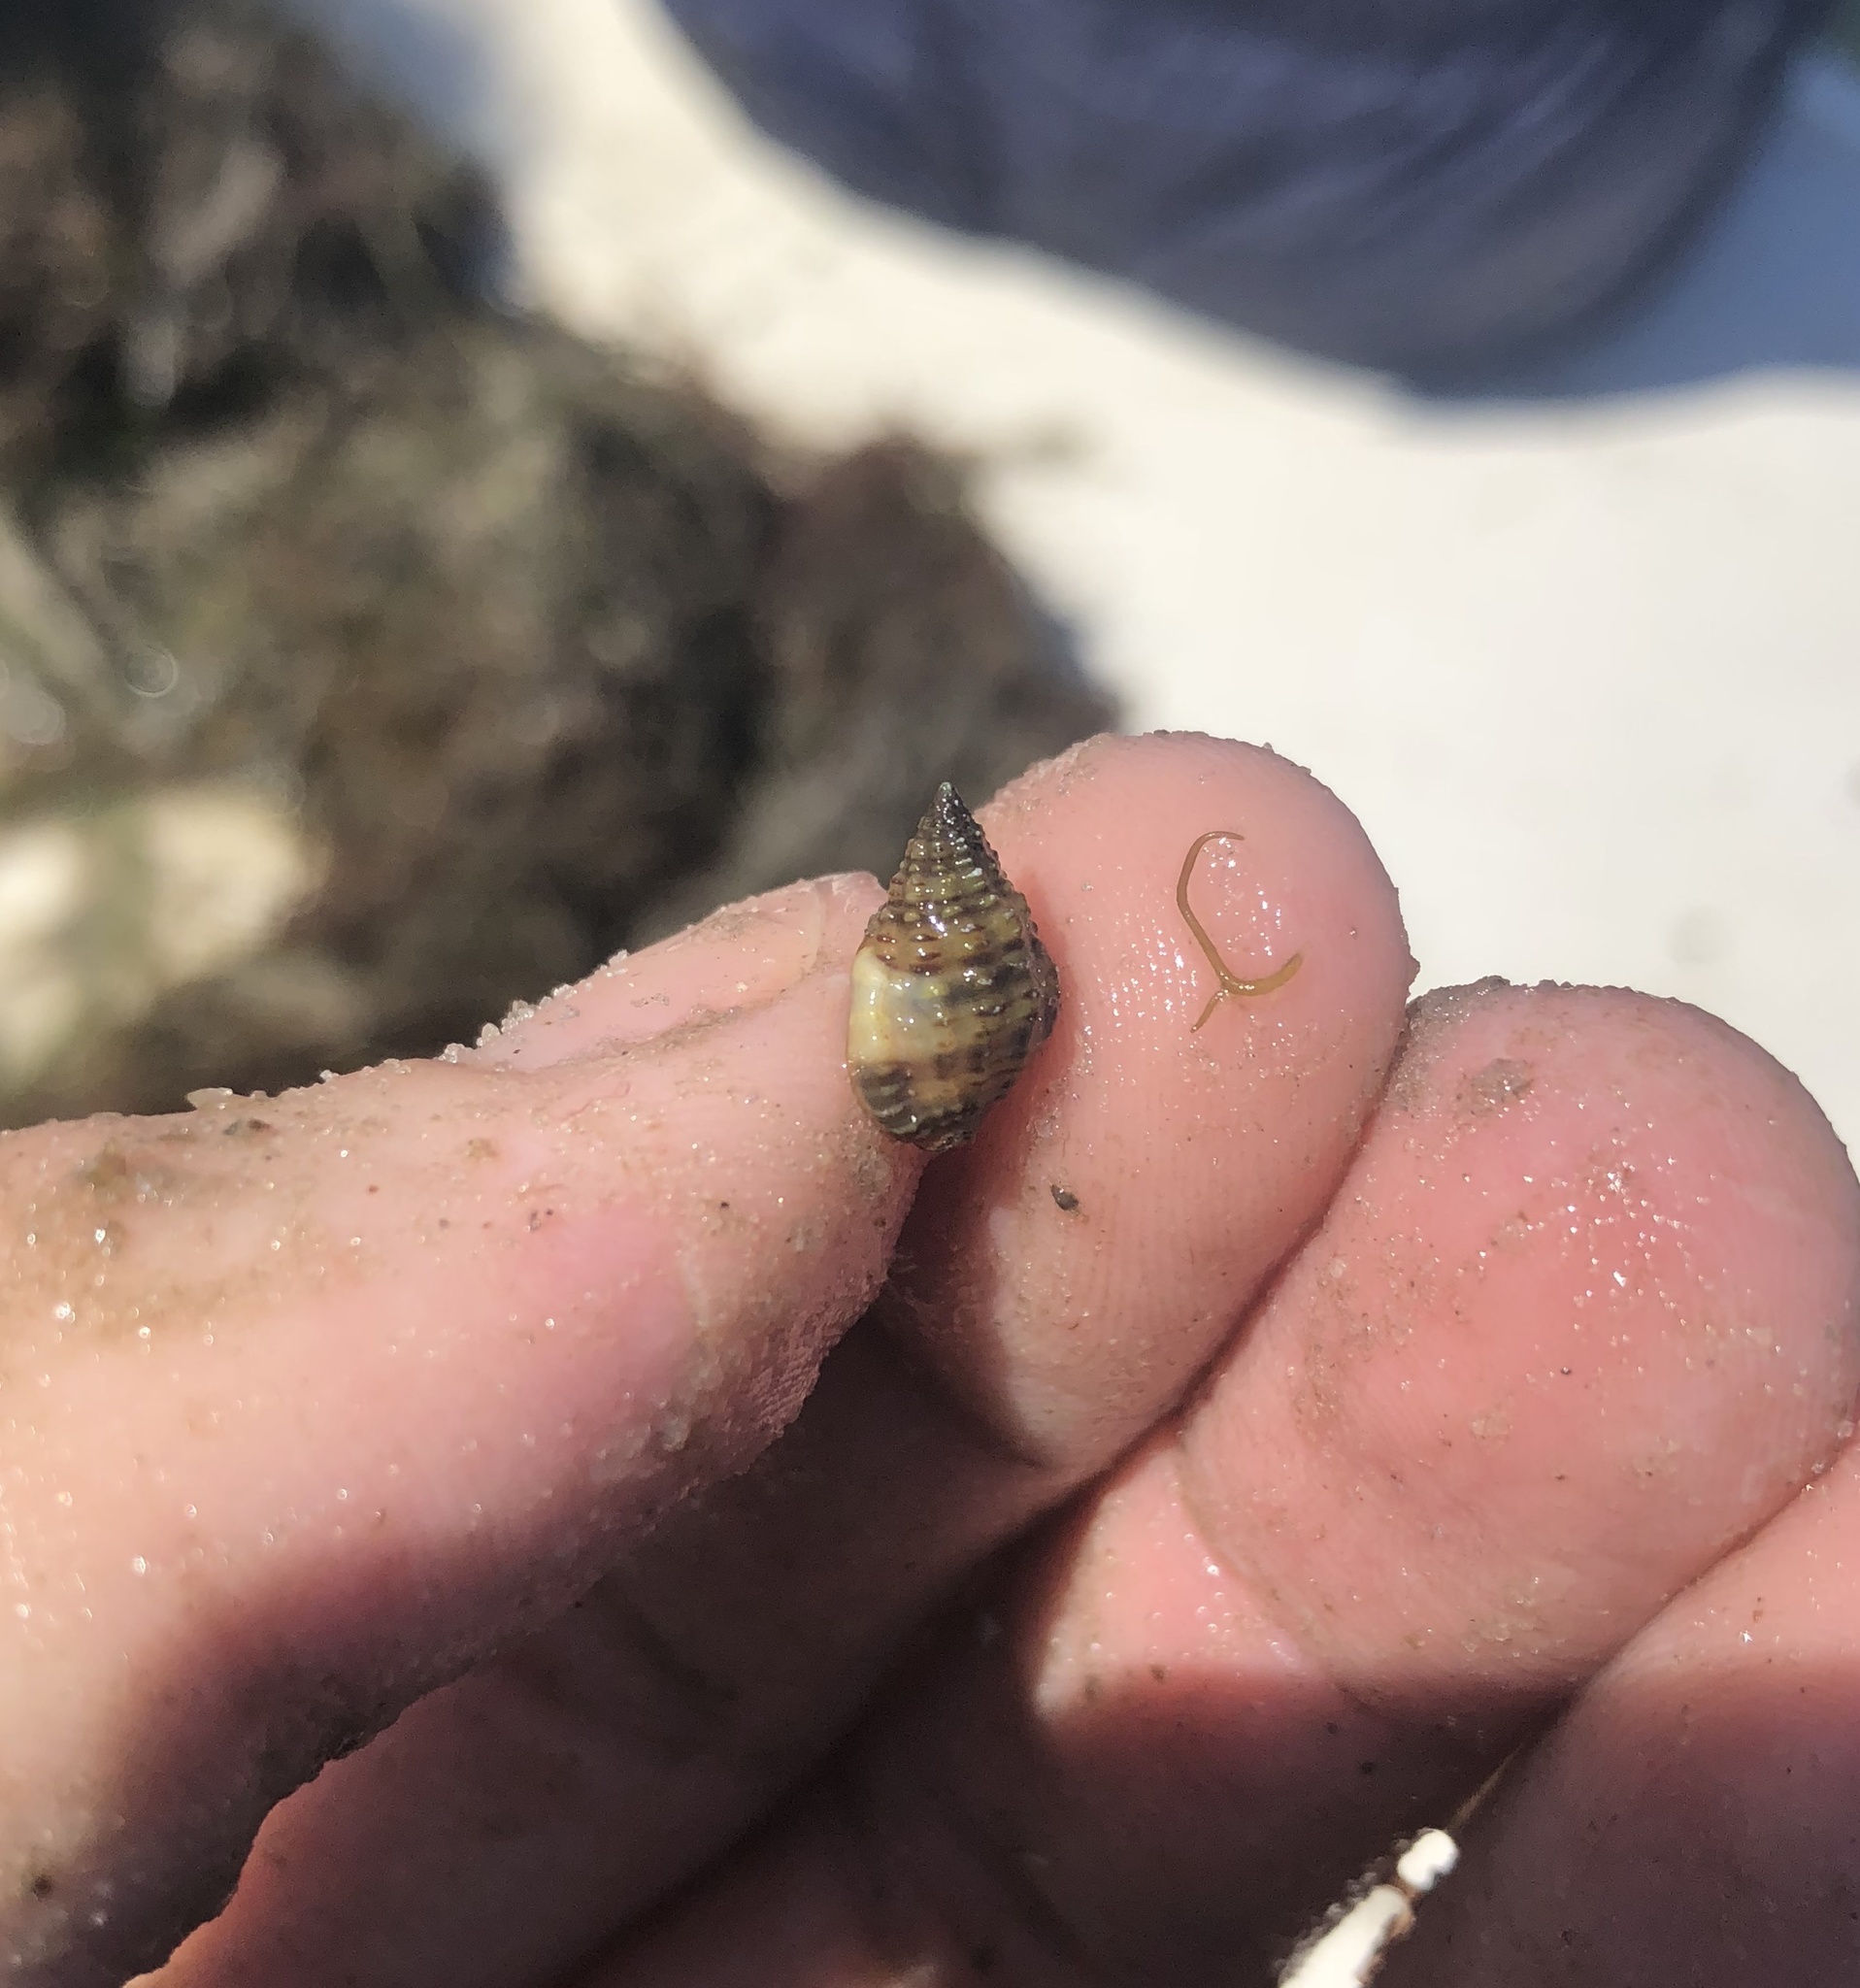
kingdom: Animalia
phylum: Mollusca
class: Gastropoda
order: Neogastropoda
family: Nassariidae
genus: Phrontis
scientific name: Phrontis vibex
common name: Bruised nassa
